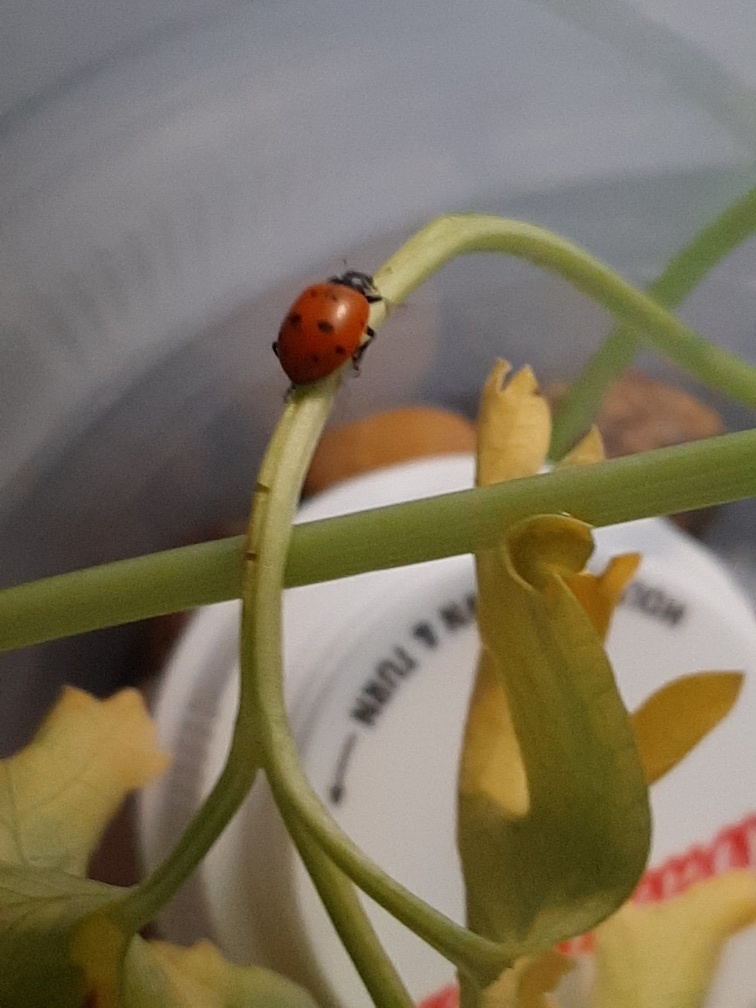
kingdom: Animalia
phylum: Arthropoda
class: Insecta
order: Coleoptera
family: Coccinellidae
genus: Hippodamia
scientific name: Hippodamia convergens
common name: Convergent lady beetle
